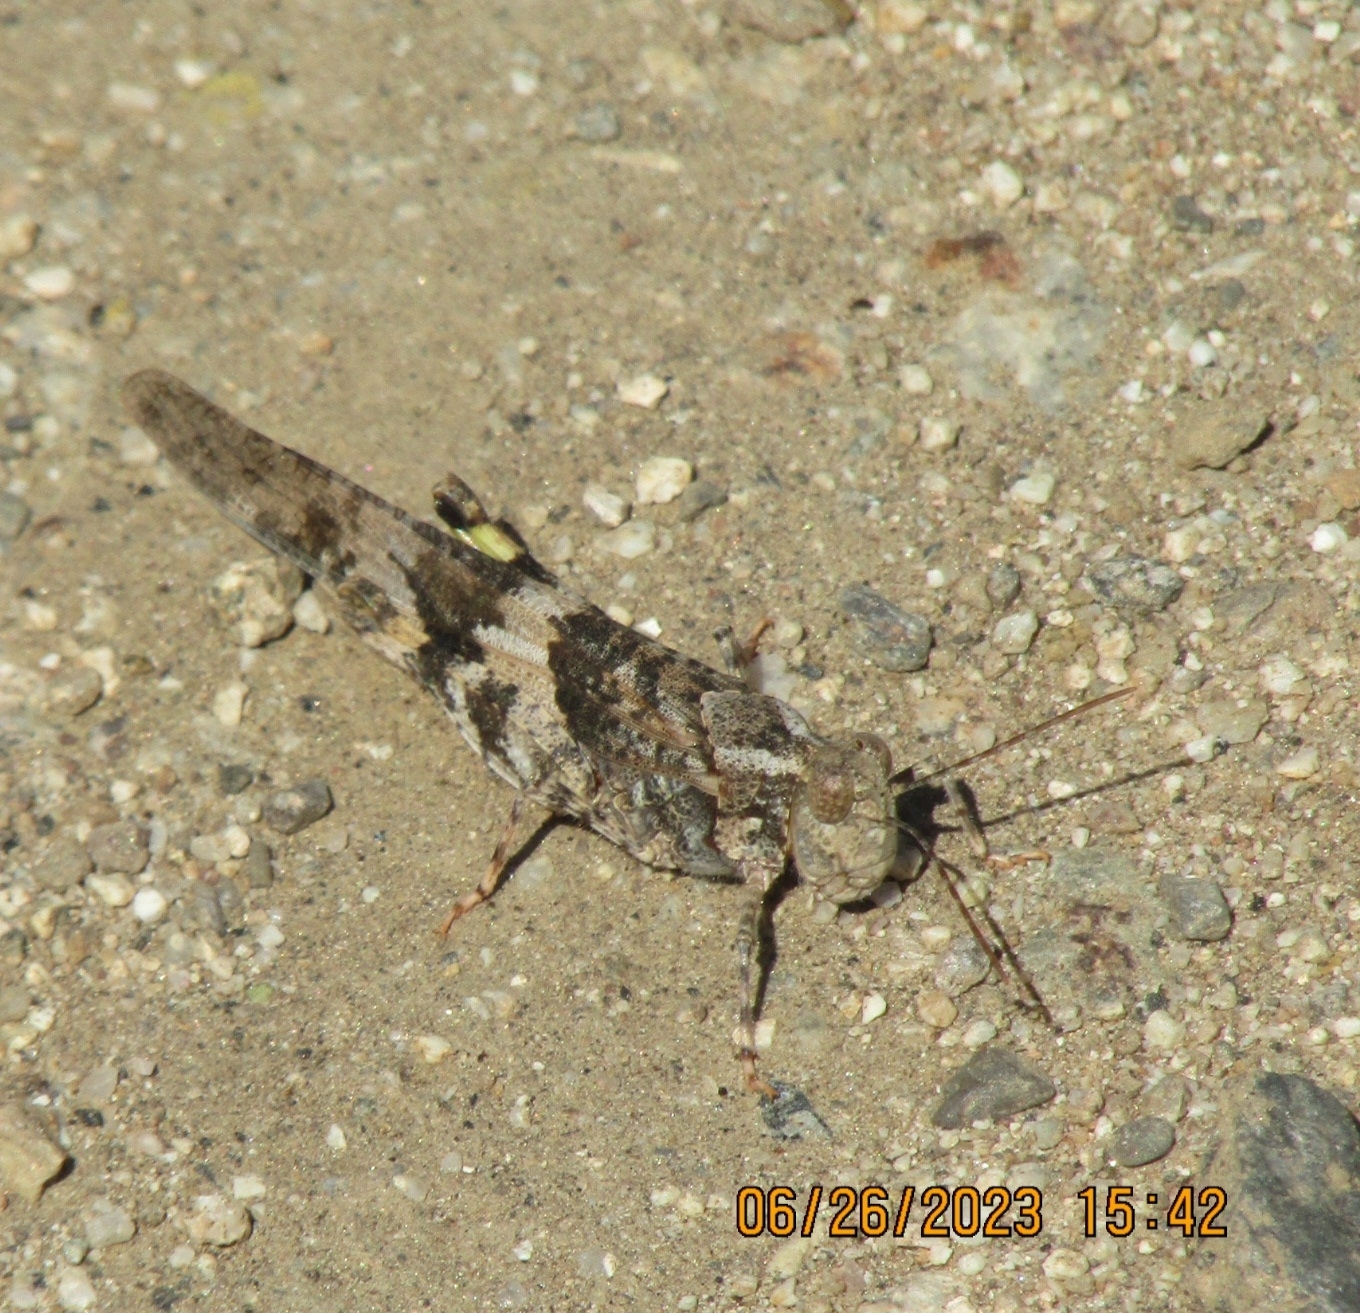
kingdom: Animalia
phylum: Arthropoda
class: Insecta
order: Orthoptera
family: Acrididae
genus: Trimerotropis
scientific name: Trimerotropis pallidipennis
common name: Pallid-winged grasshopper
